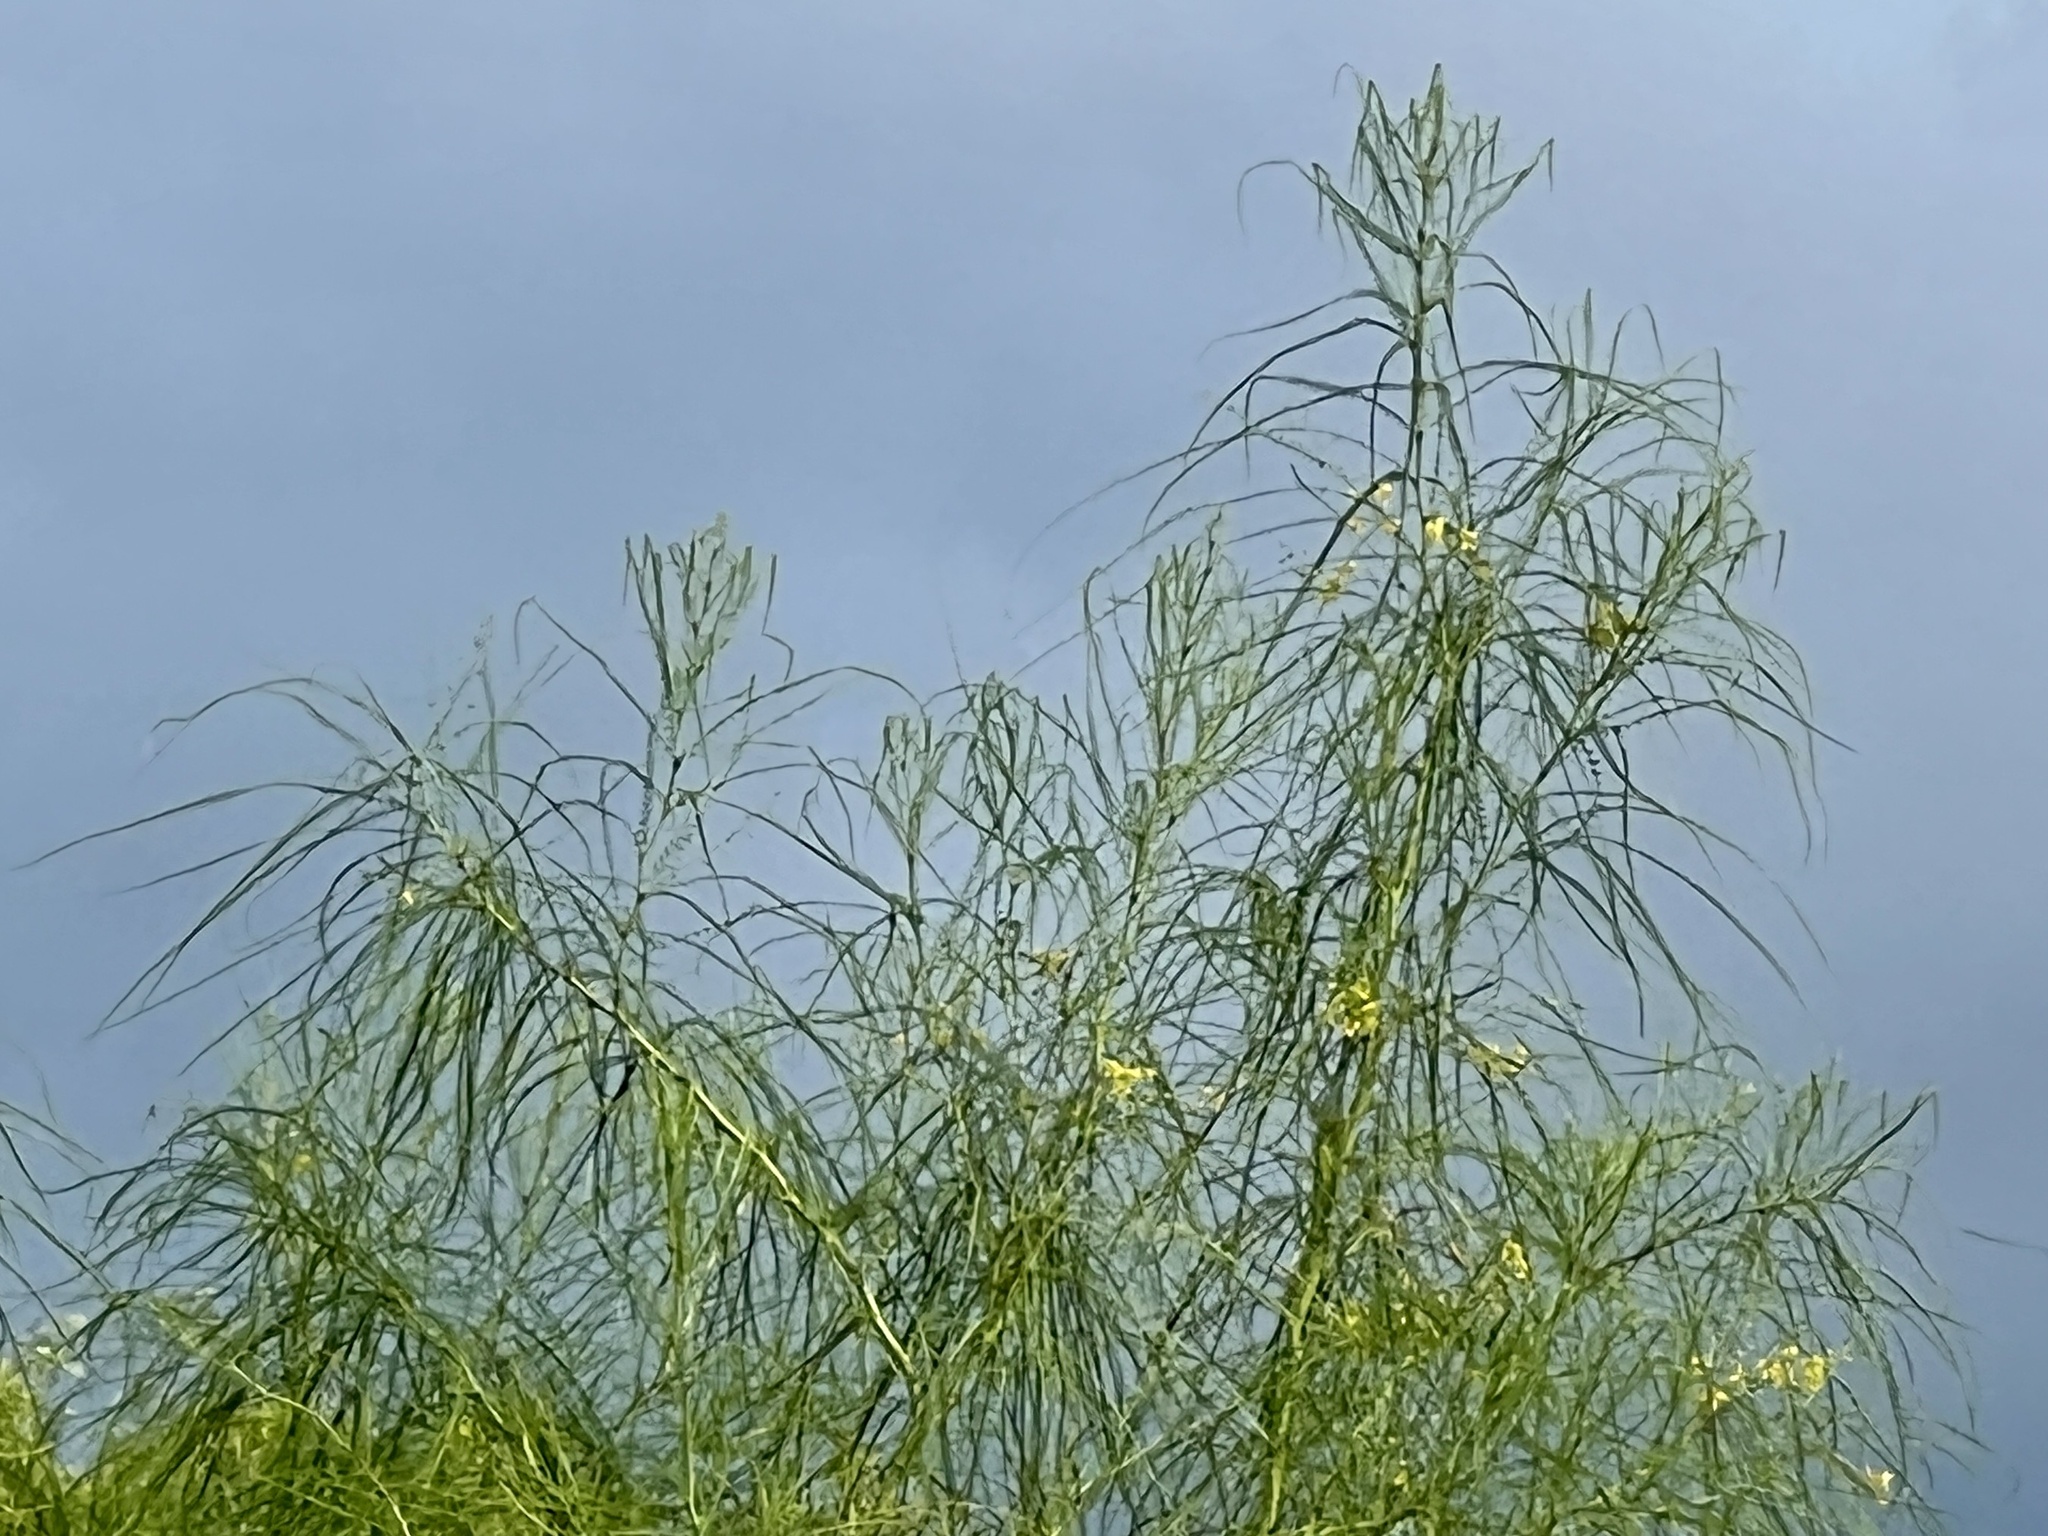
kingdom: Plantae
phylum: Tracheophyta
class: Magnoliopsida
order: Fabales
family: Fabaceae
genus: Parkinsonia
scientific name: Parkinsonia aculeata
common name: Jerusalem thorn
